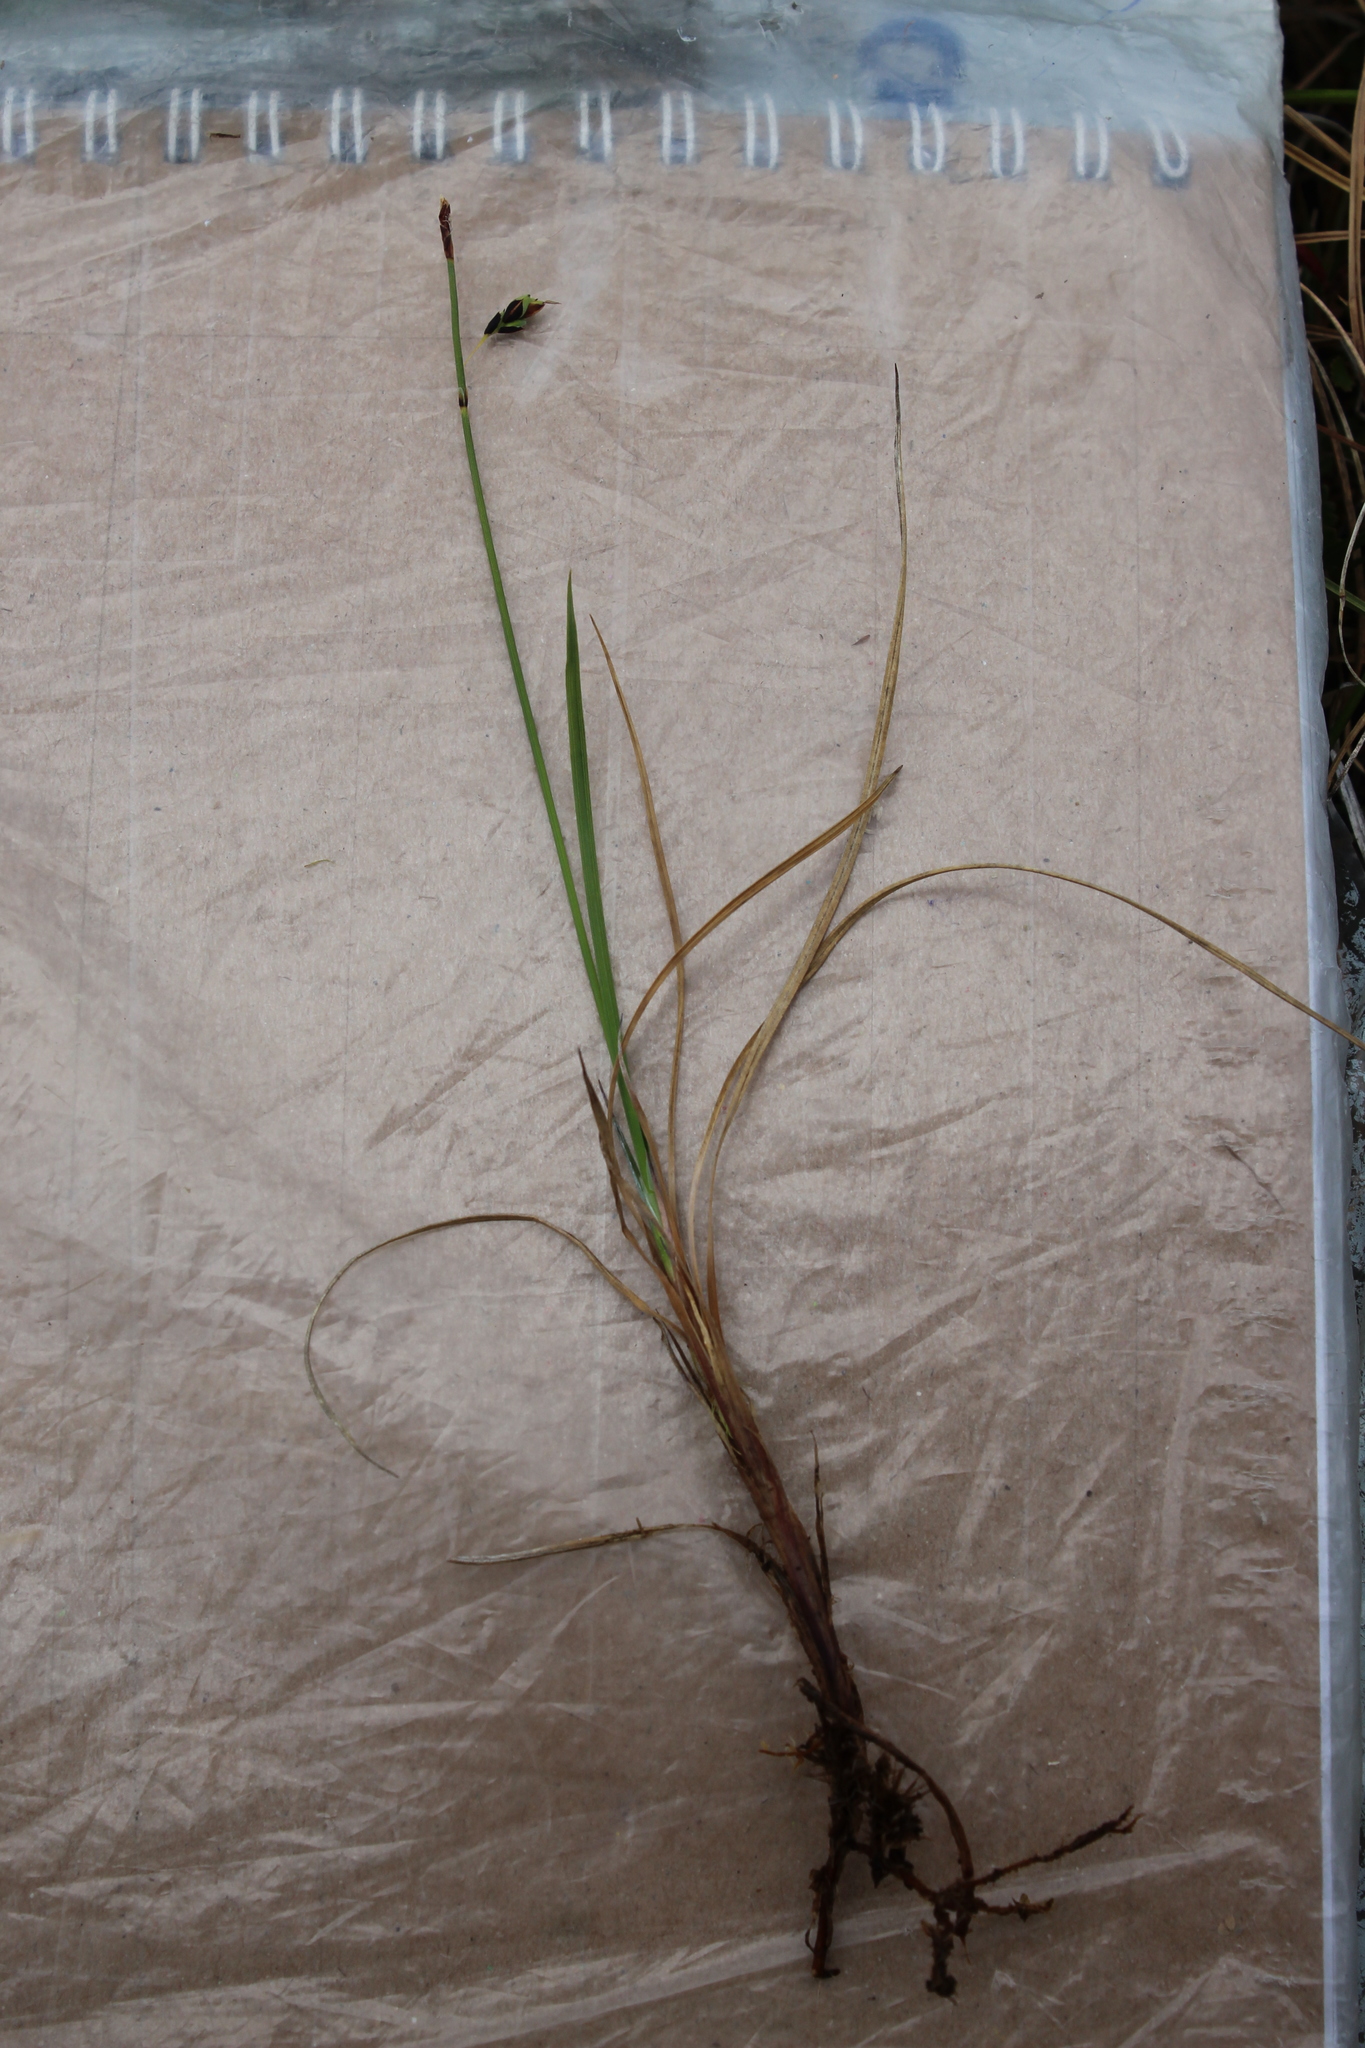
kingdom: Plantae
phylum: Tracheophyta
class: Liliopsida
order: Poales
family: Cyperaceae
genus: Carex
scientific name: Carex rariflora
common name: Loose-flowered alpine sedge
